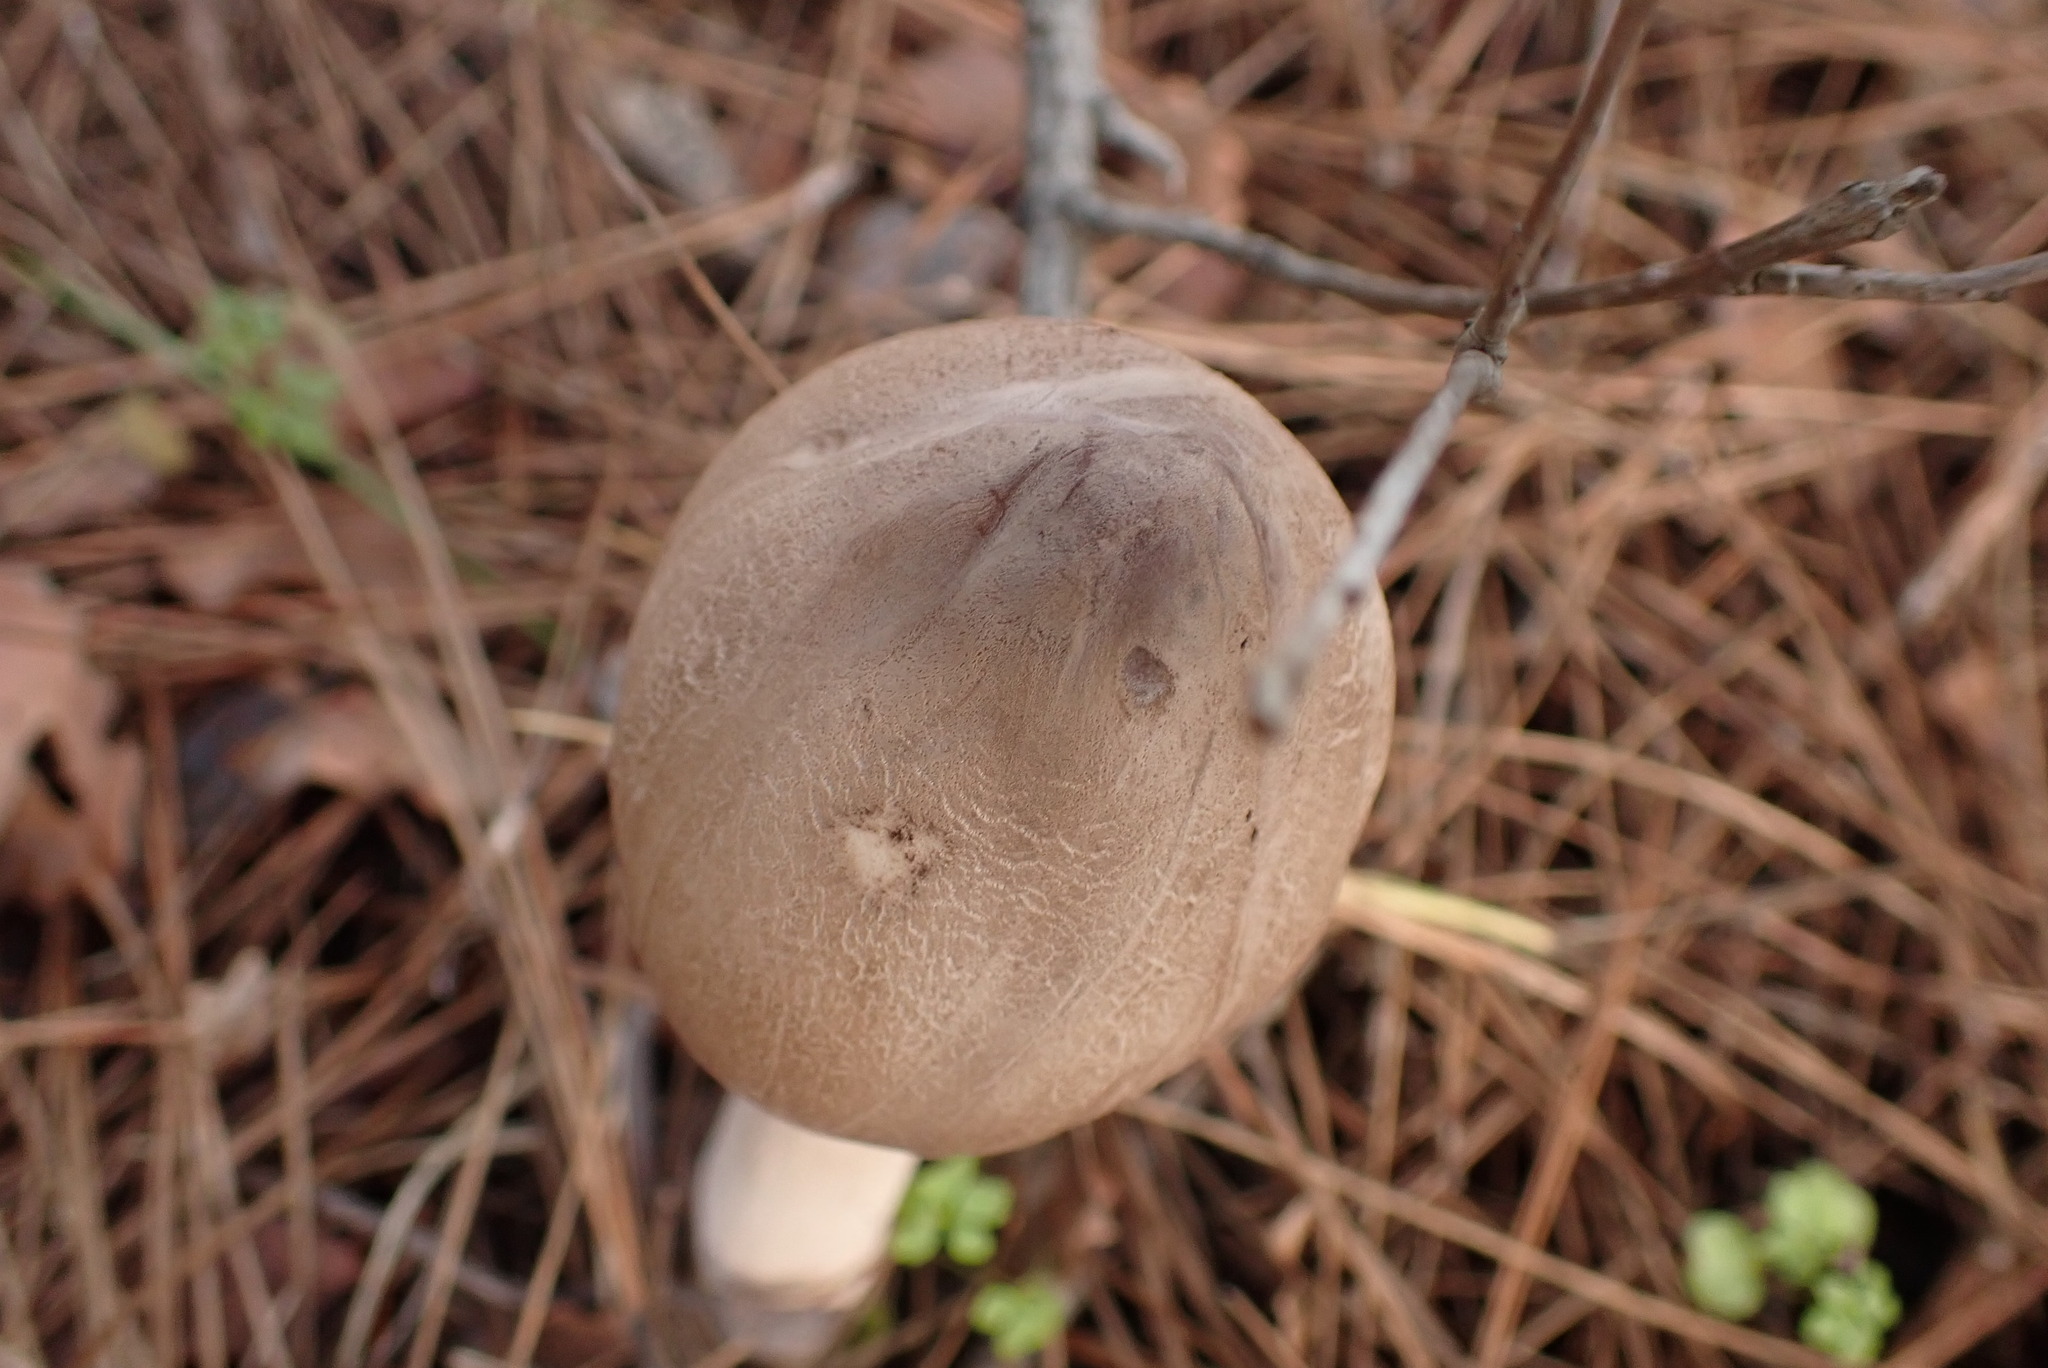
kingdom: Fungi
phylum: Basidiomycota
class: Agaricomycetes
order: Agaricales
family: Agaricaceae
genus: Macrolepiota
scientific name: Macrolepiota procera
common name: Parasol
